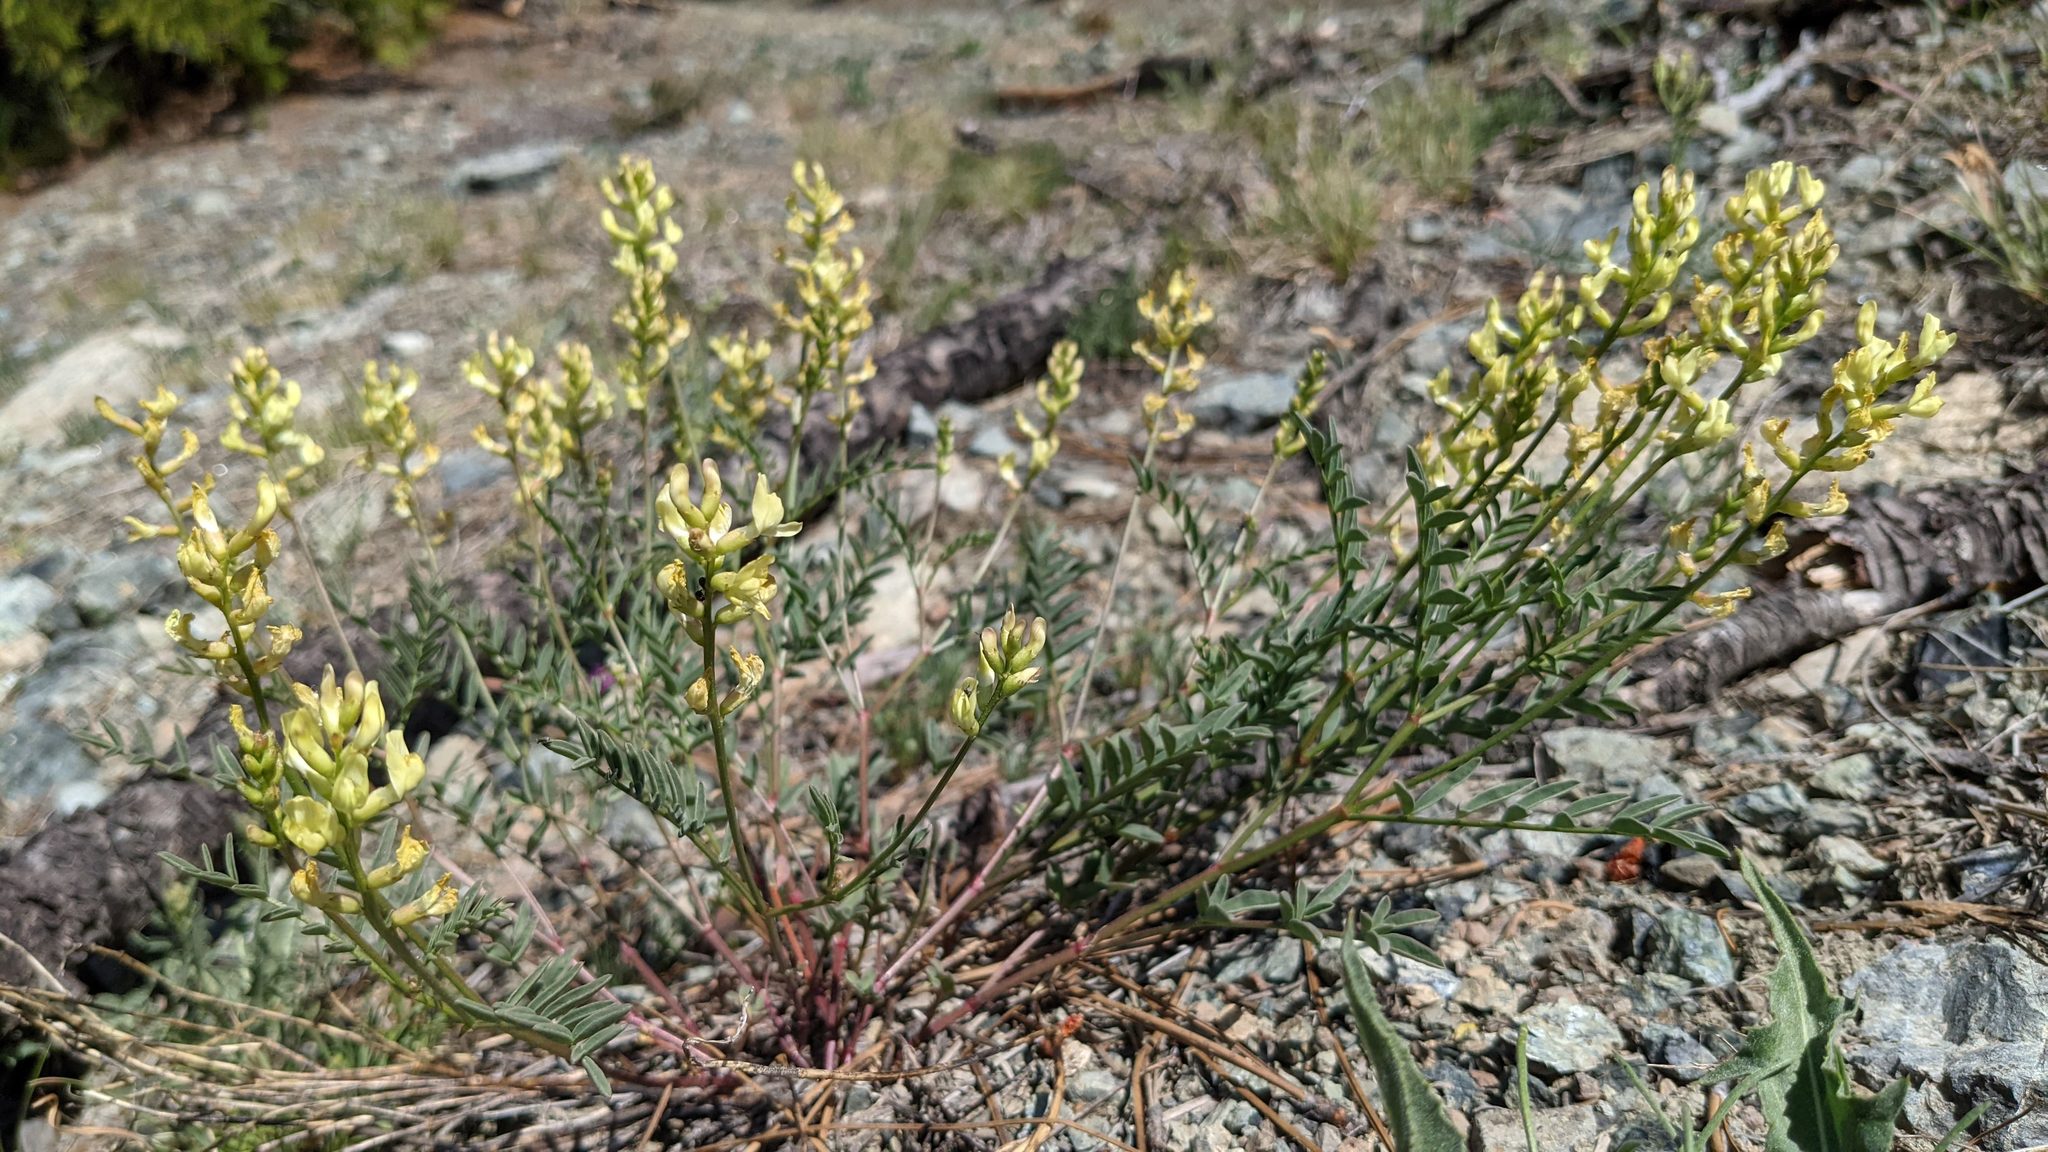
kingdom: Plantae
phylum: Tracheophyta
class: Magnoliopsida
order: Fabales
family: Fabaceae
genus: Astragalus
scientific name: Astragalus whitneyi
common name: Balloonpod milkvetch
